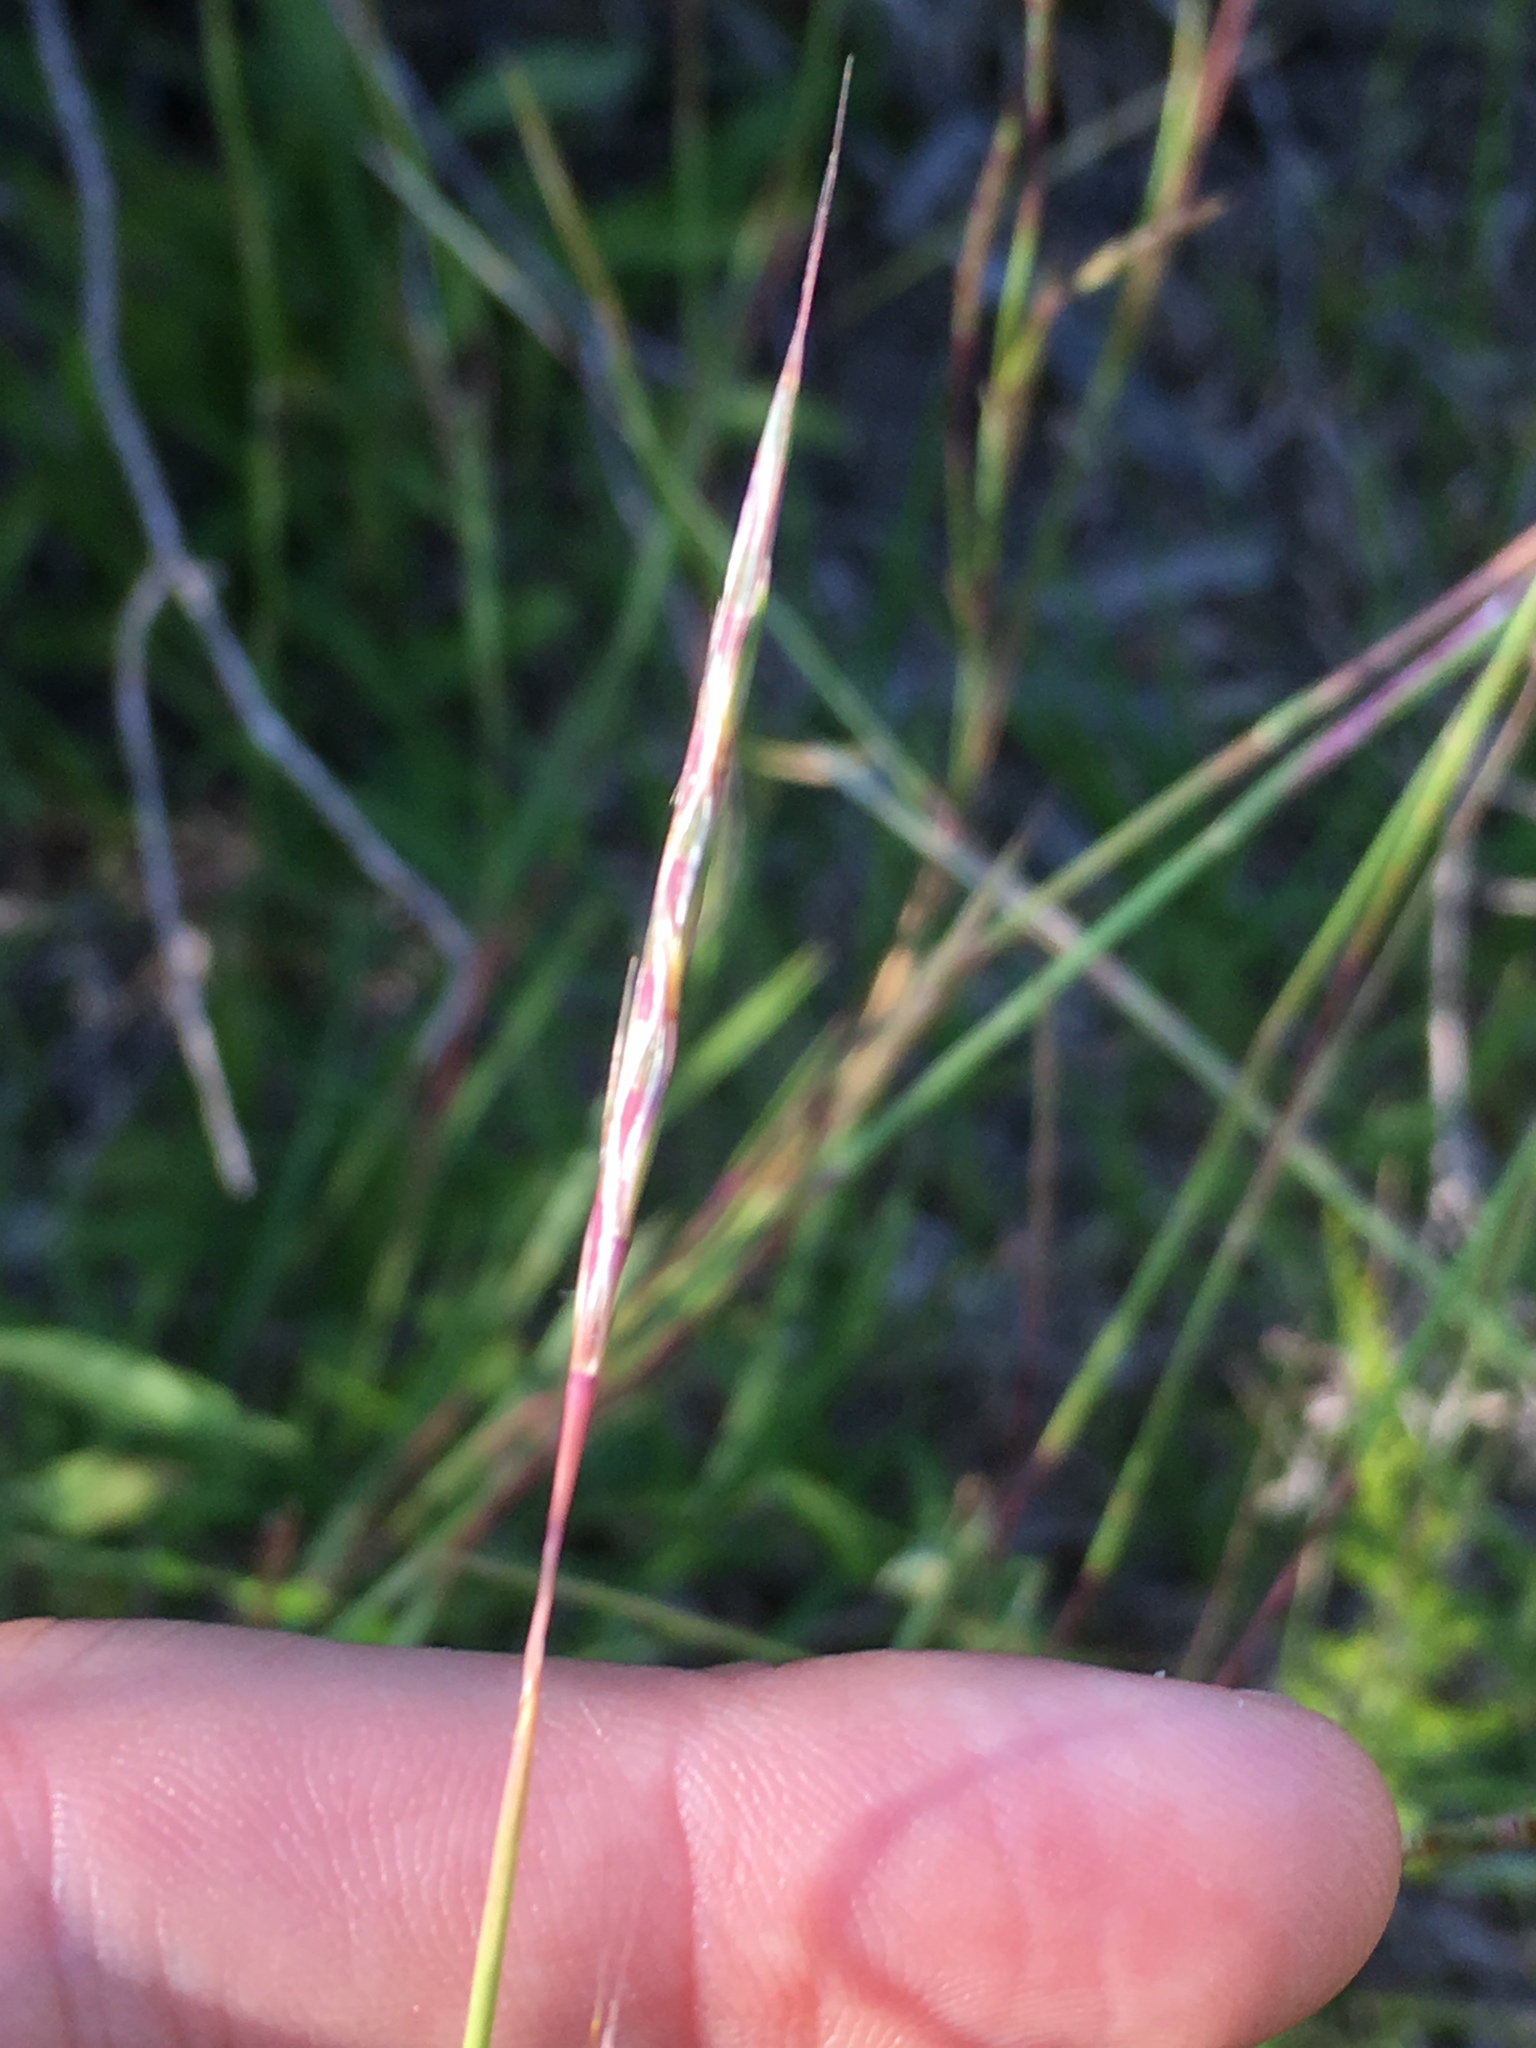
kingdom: Plantae
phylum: Tracheophyta
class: Liliopsida
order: Poales
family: Poaceae
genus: Schizachyrium
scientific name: Schizachyrium scoparium
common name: Little bluestem
